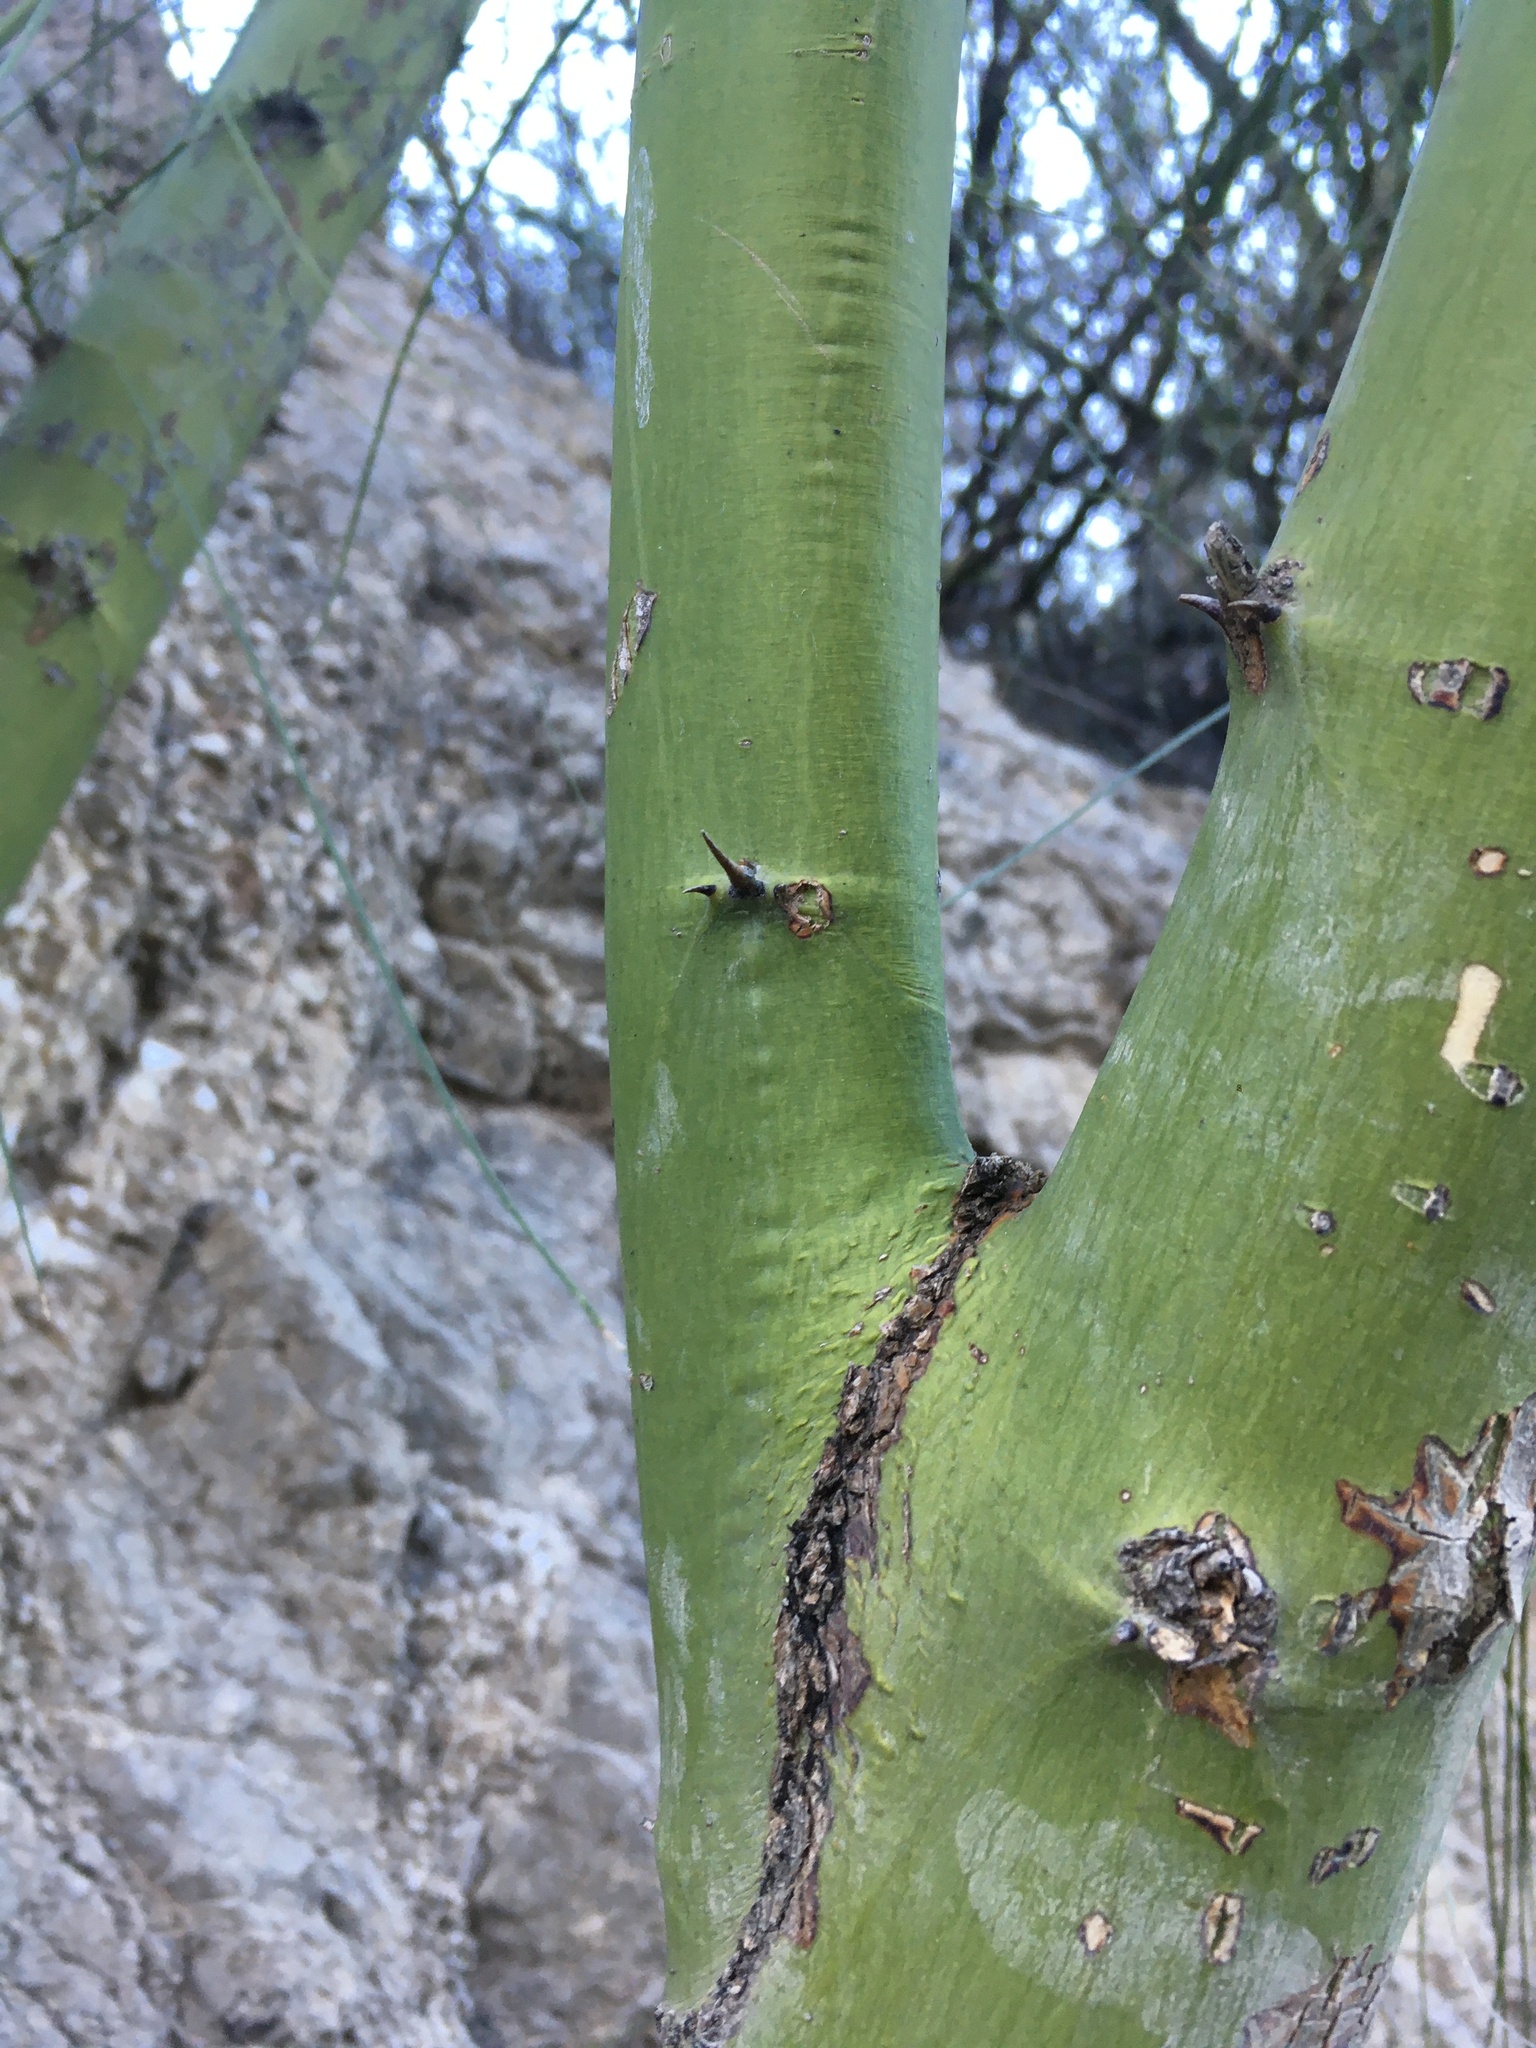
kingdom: Plantae
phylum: Tracheophyta
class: Magnoliopsida
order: Fabales
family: Fabaceae
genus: Parkinsonia
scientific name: Parkinsonia aculeata
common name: Jerusalem thorn
